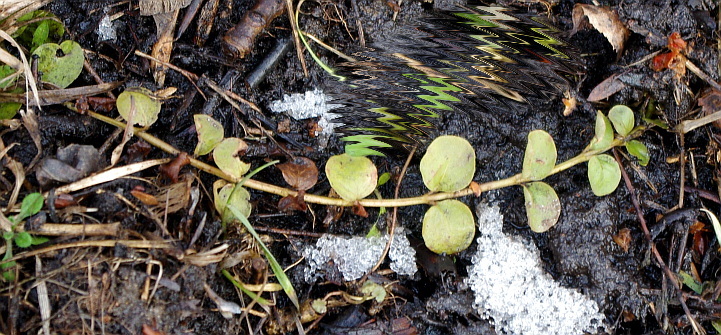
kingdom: Plantae
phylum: Tracheophyta
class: Magnoliopsida
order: Ericales
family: Primulaceae
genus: Lysimachia
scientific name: Lysimachia nummularia
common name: Moneywort
